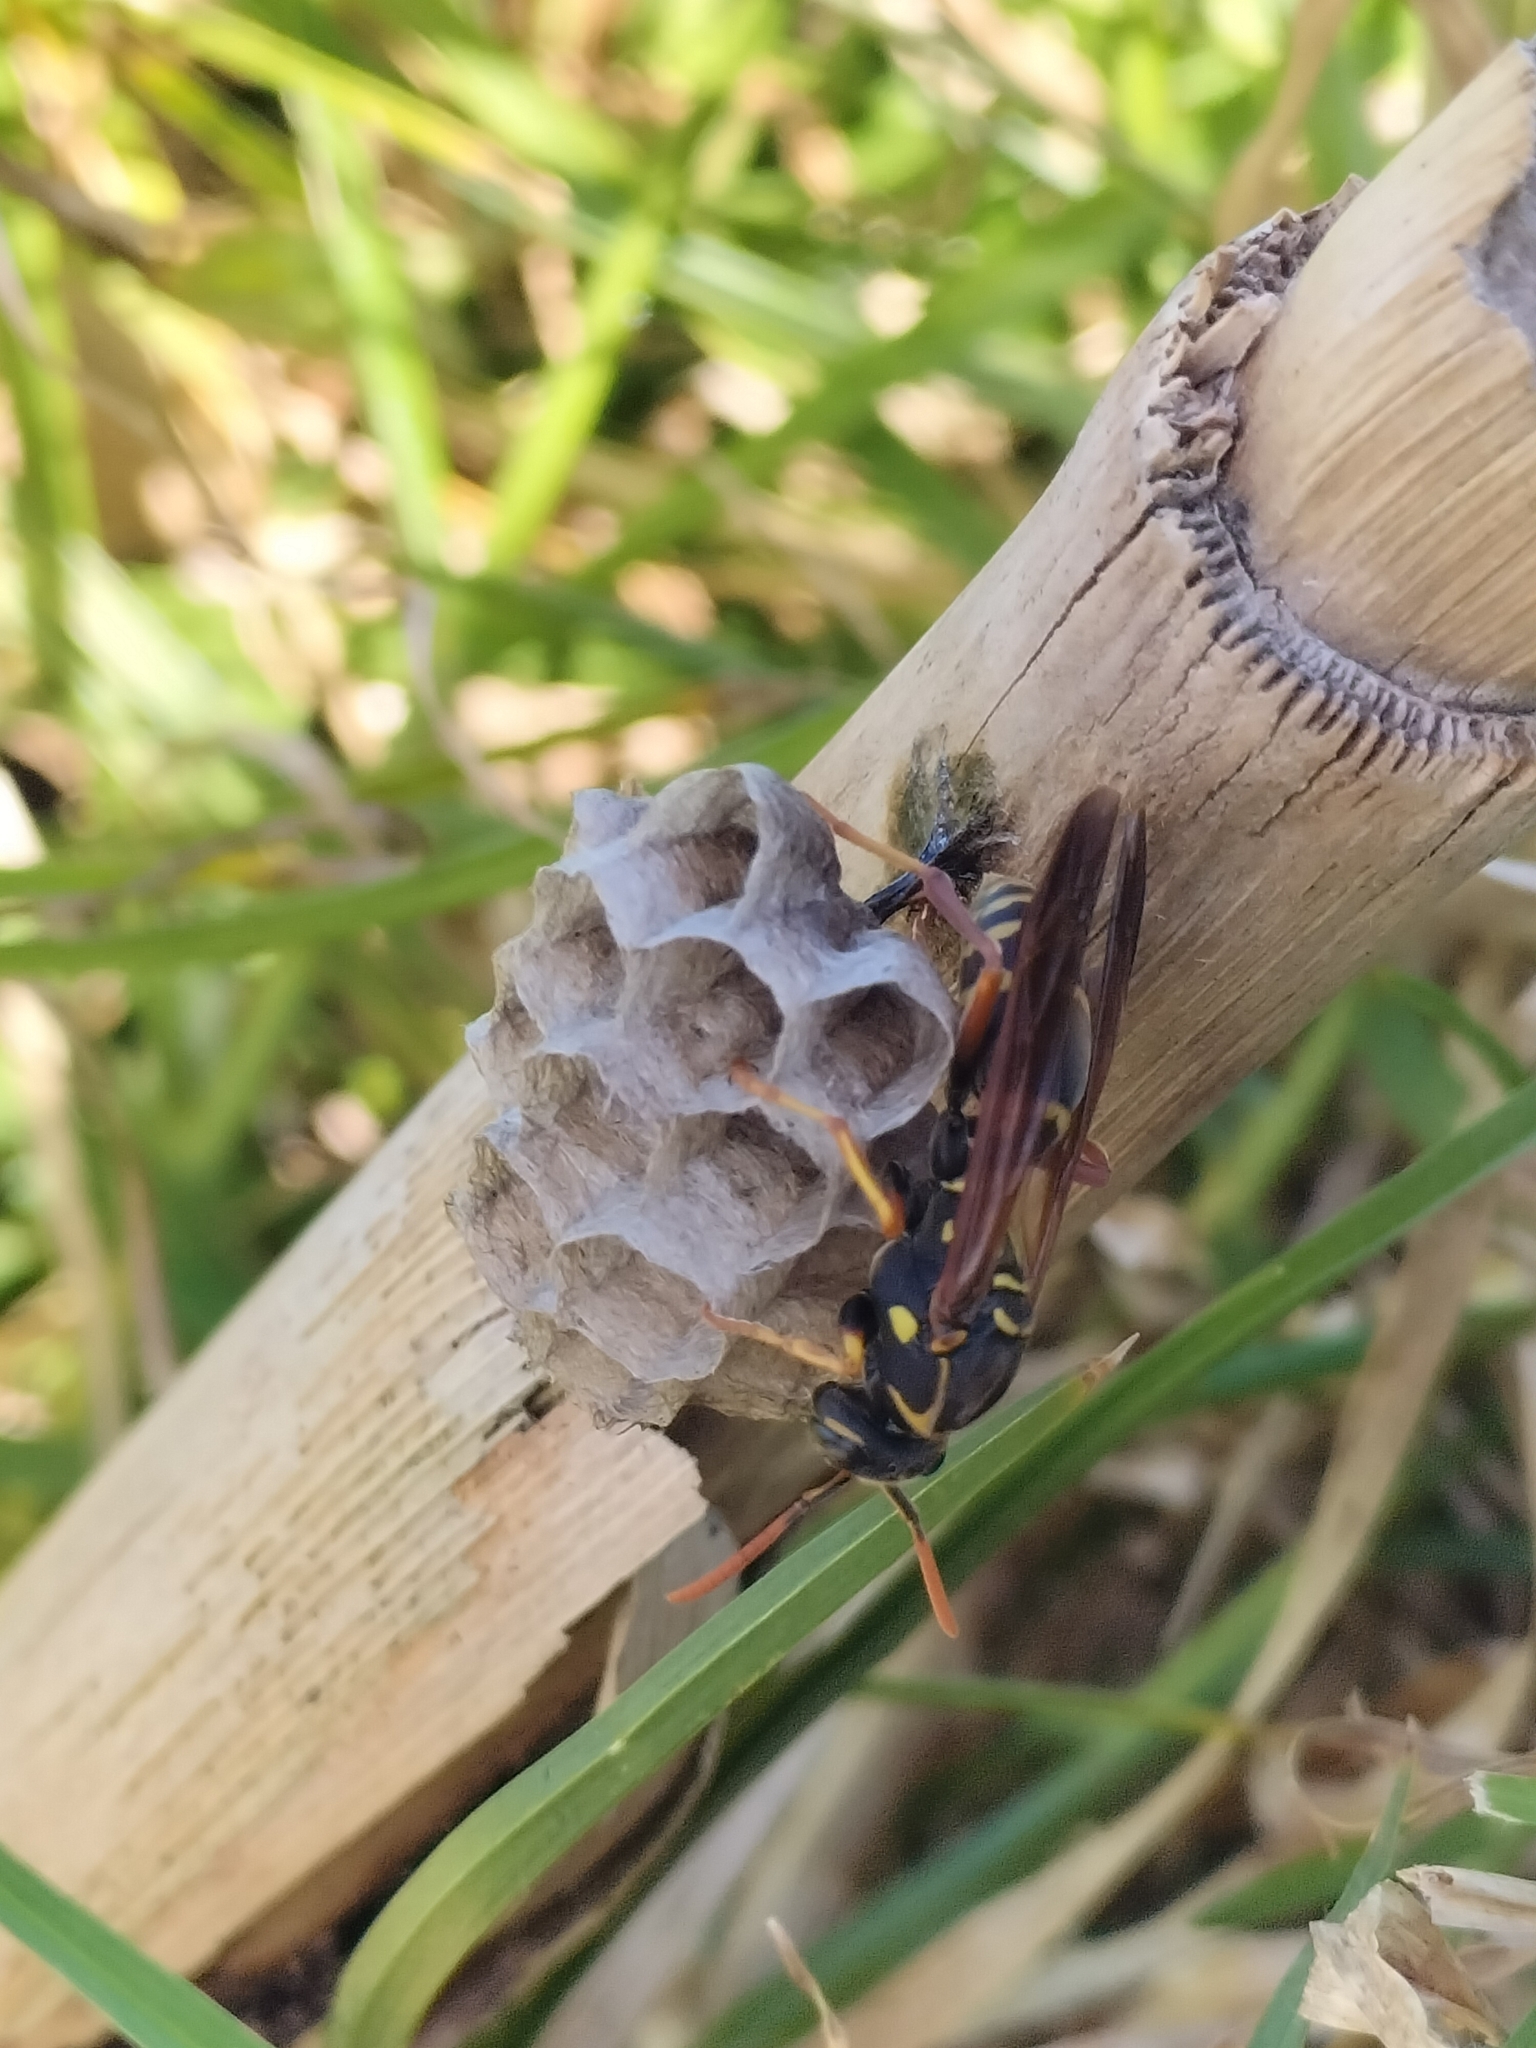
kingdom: Animalia
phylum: Arthropoda
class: Insecta
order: Hymenoptera
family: Eumenidae
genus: Polistes
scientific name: Polistes chinensis
